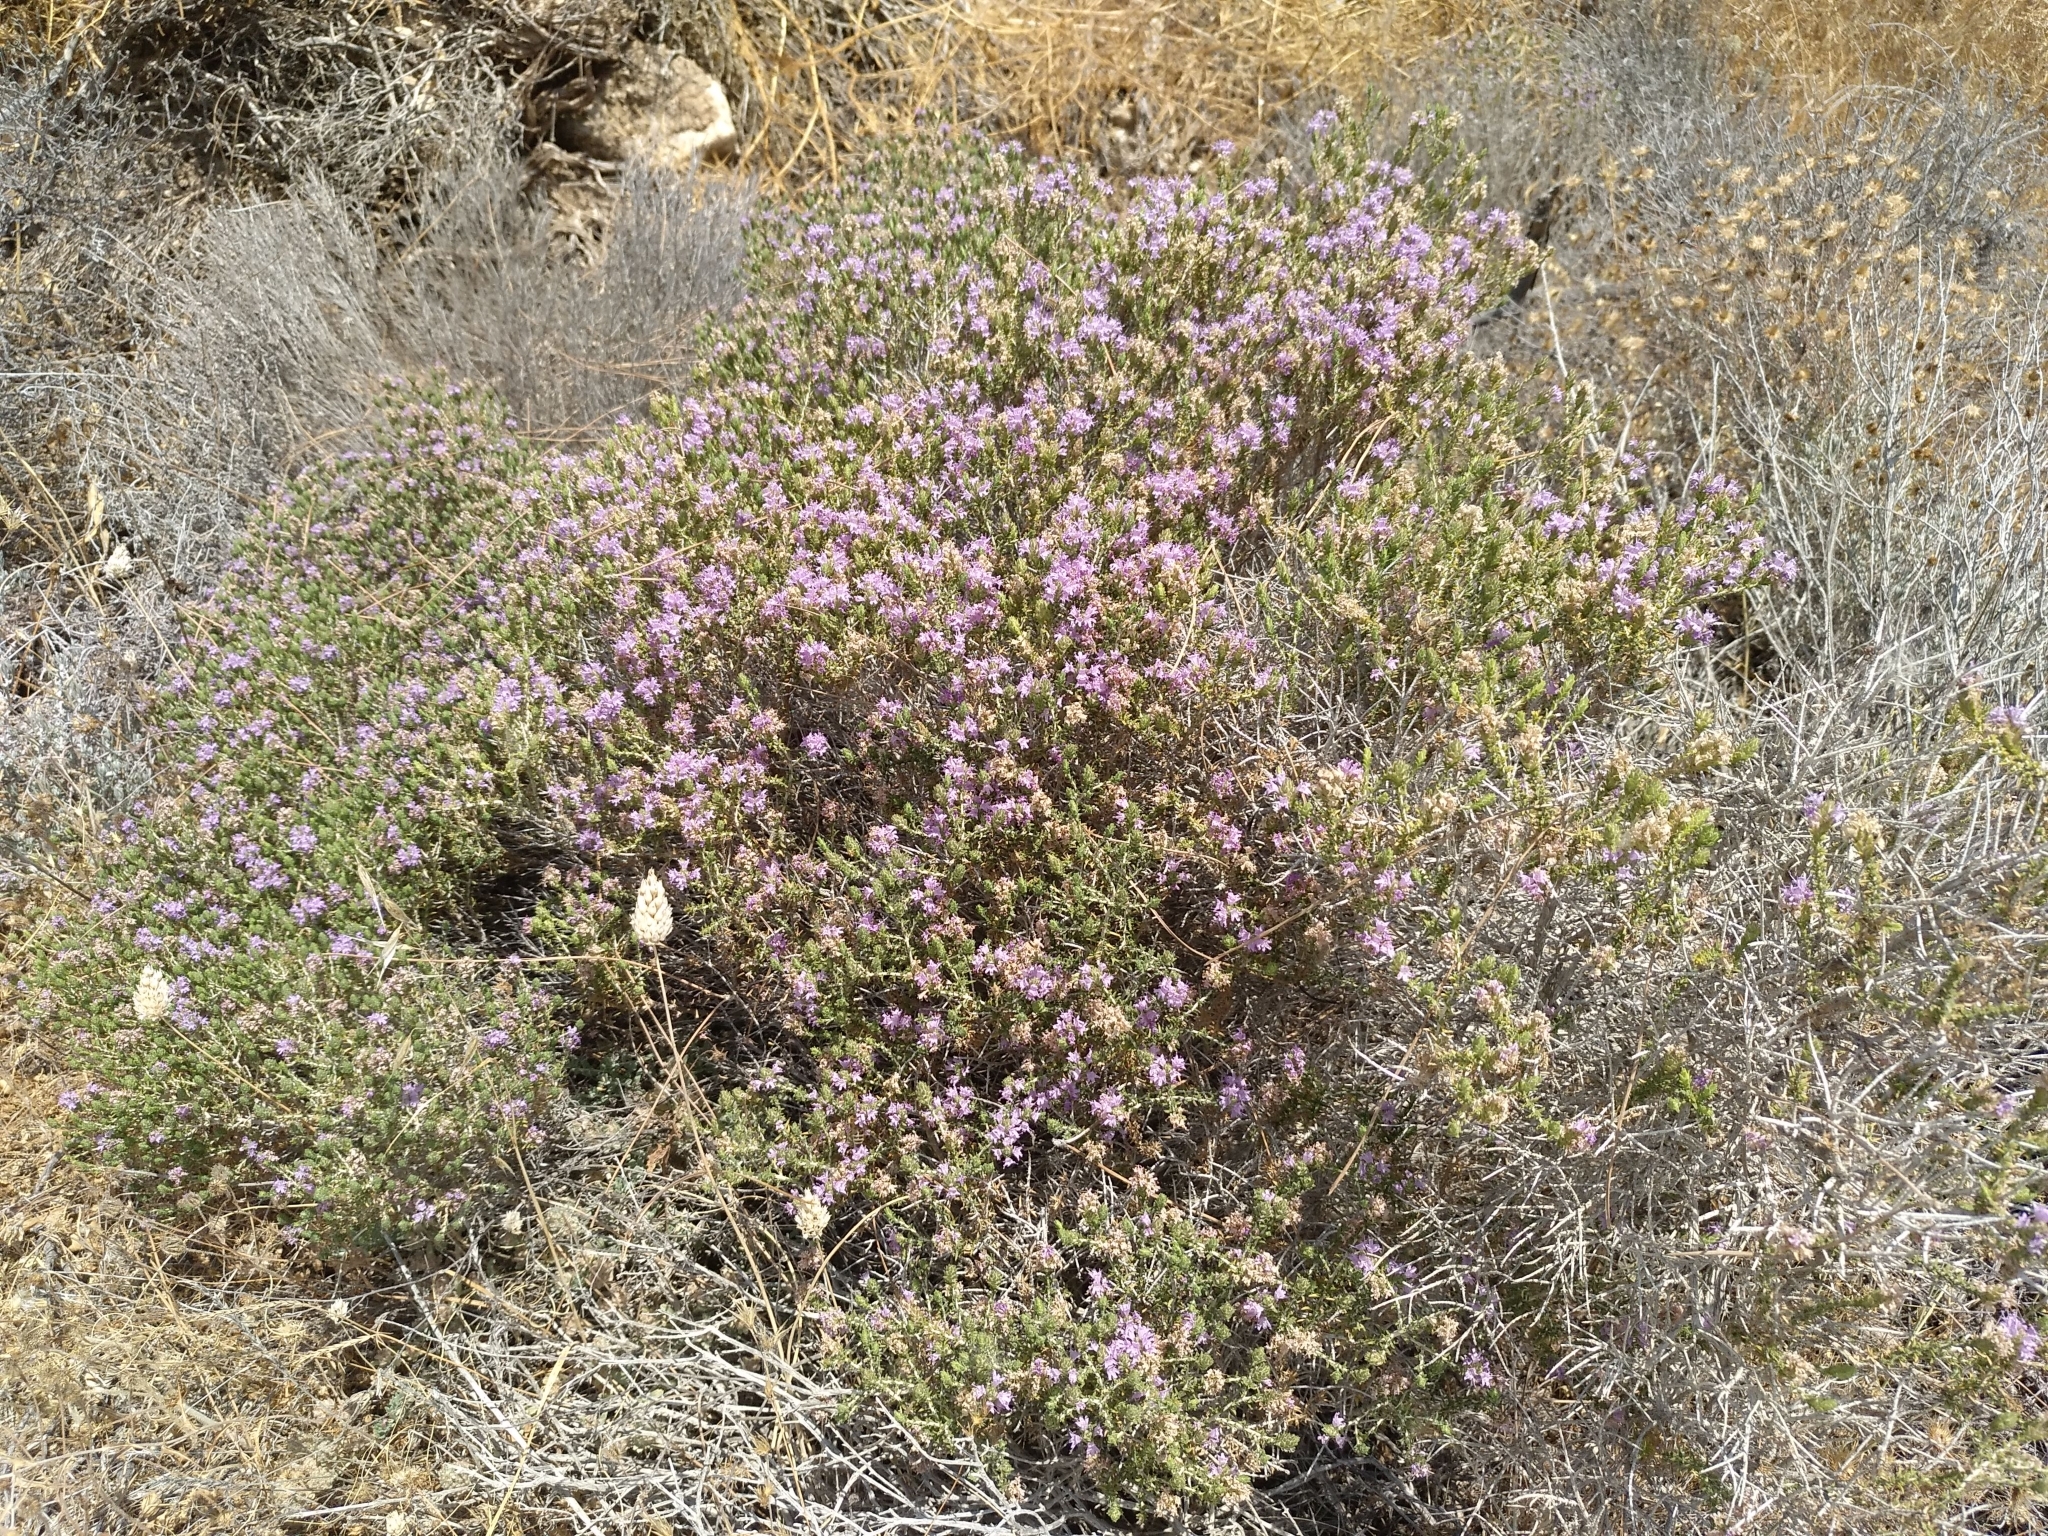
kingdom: Plantae
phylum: Tracheophyta
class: Magnoliopsida
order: Lamiales
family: Lamiaceae
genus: Thymbra
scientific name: Thymbra capitata
